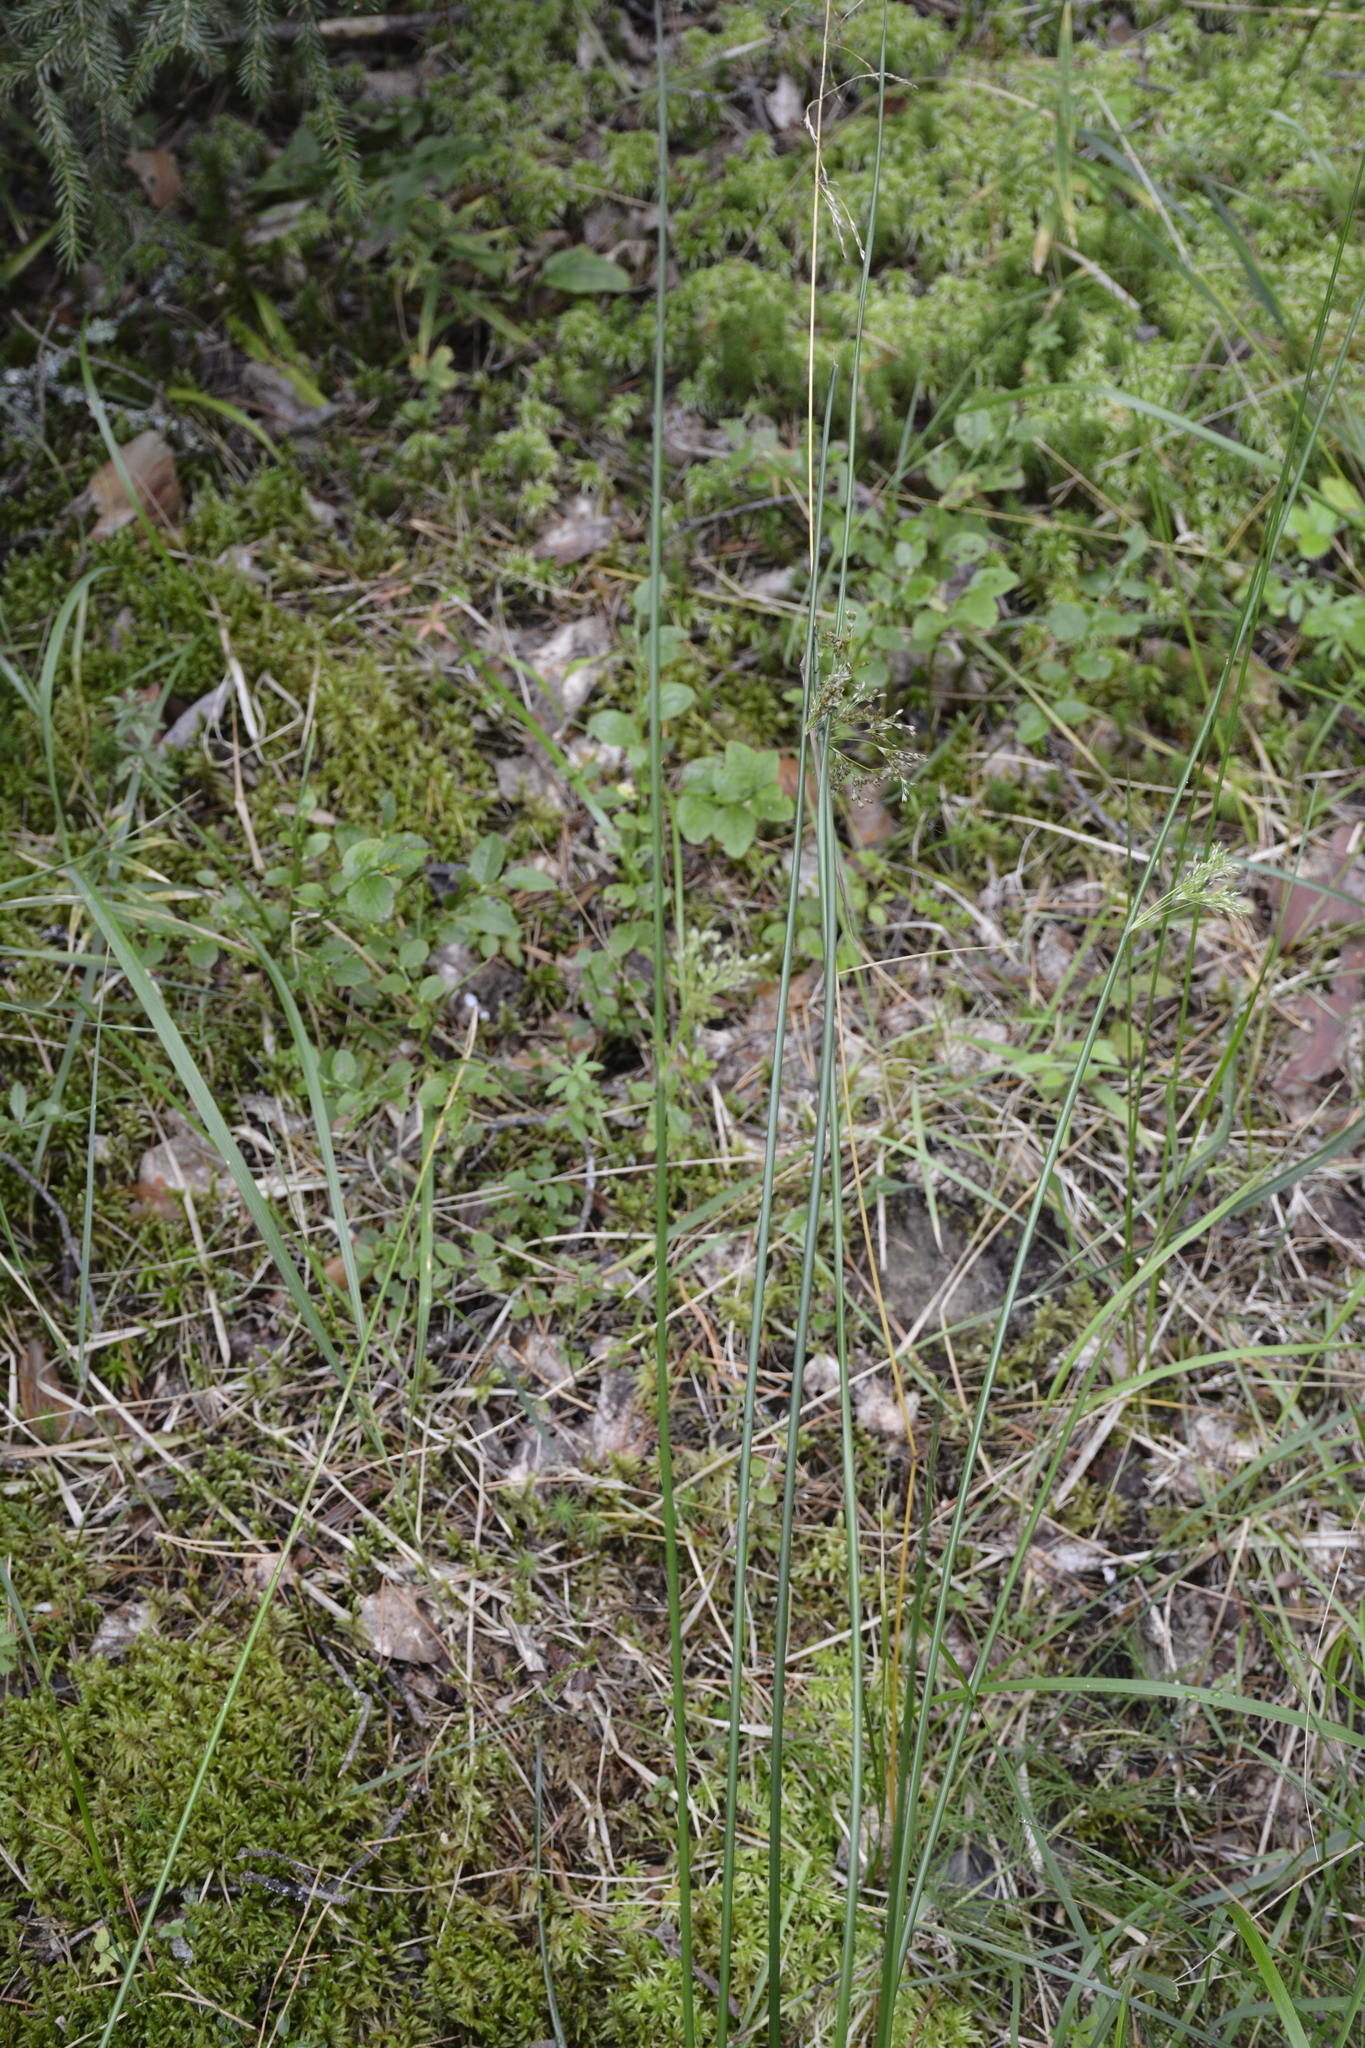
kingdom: Plantae
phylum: Tracheophyta
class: Liliopsida
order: Poales
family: Juncaceae
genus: Juncus
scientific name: Juncus effusus
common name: Soft rush
